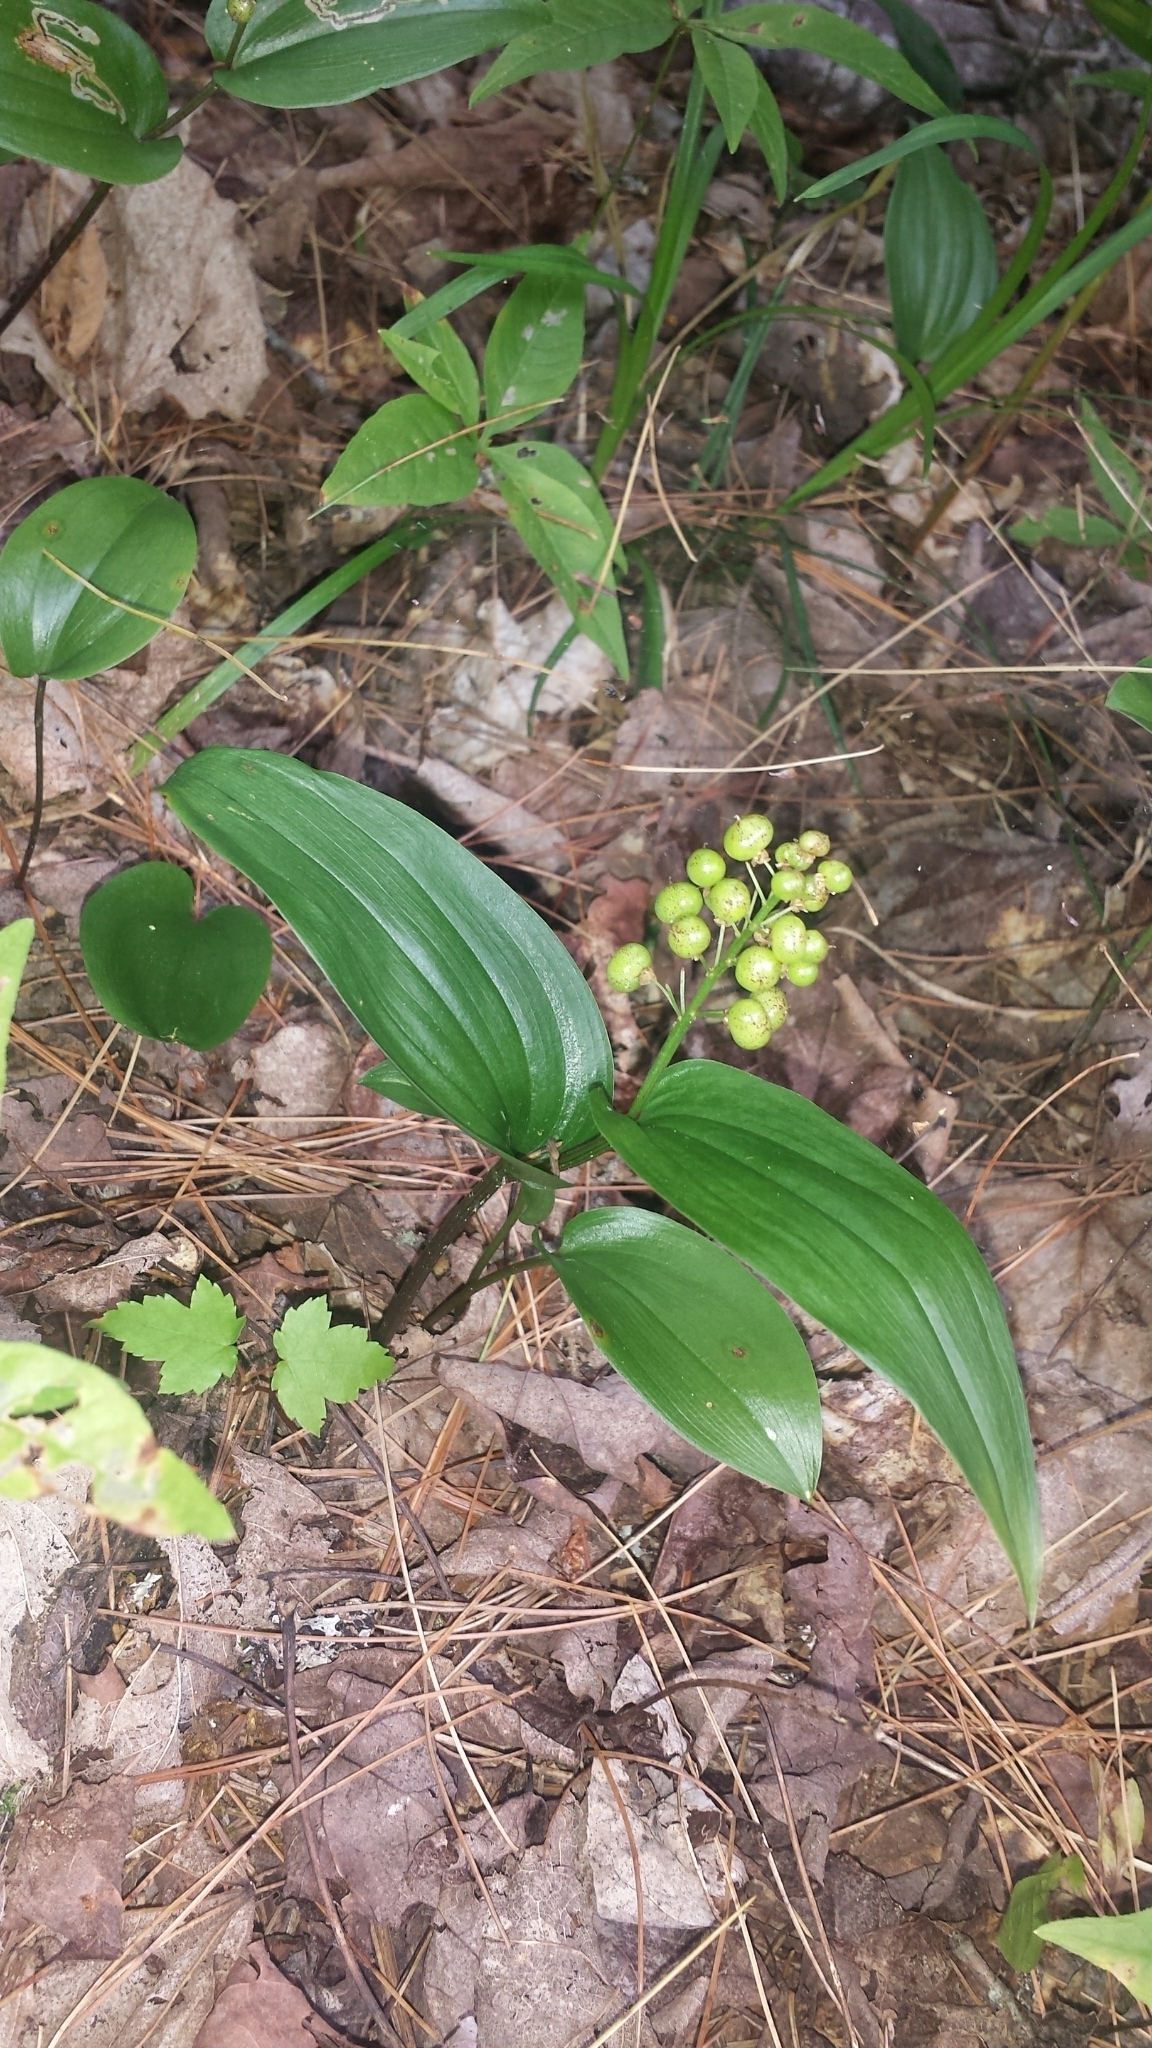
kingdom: Plantae
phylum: Tracheophyta
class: Liliopsida
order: Asparagales
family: Asparagaceae
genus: Maianthemum
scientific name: Maianthemum canadense
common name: False lily-of-the-valley
